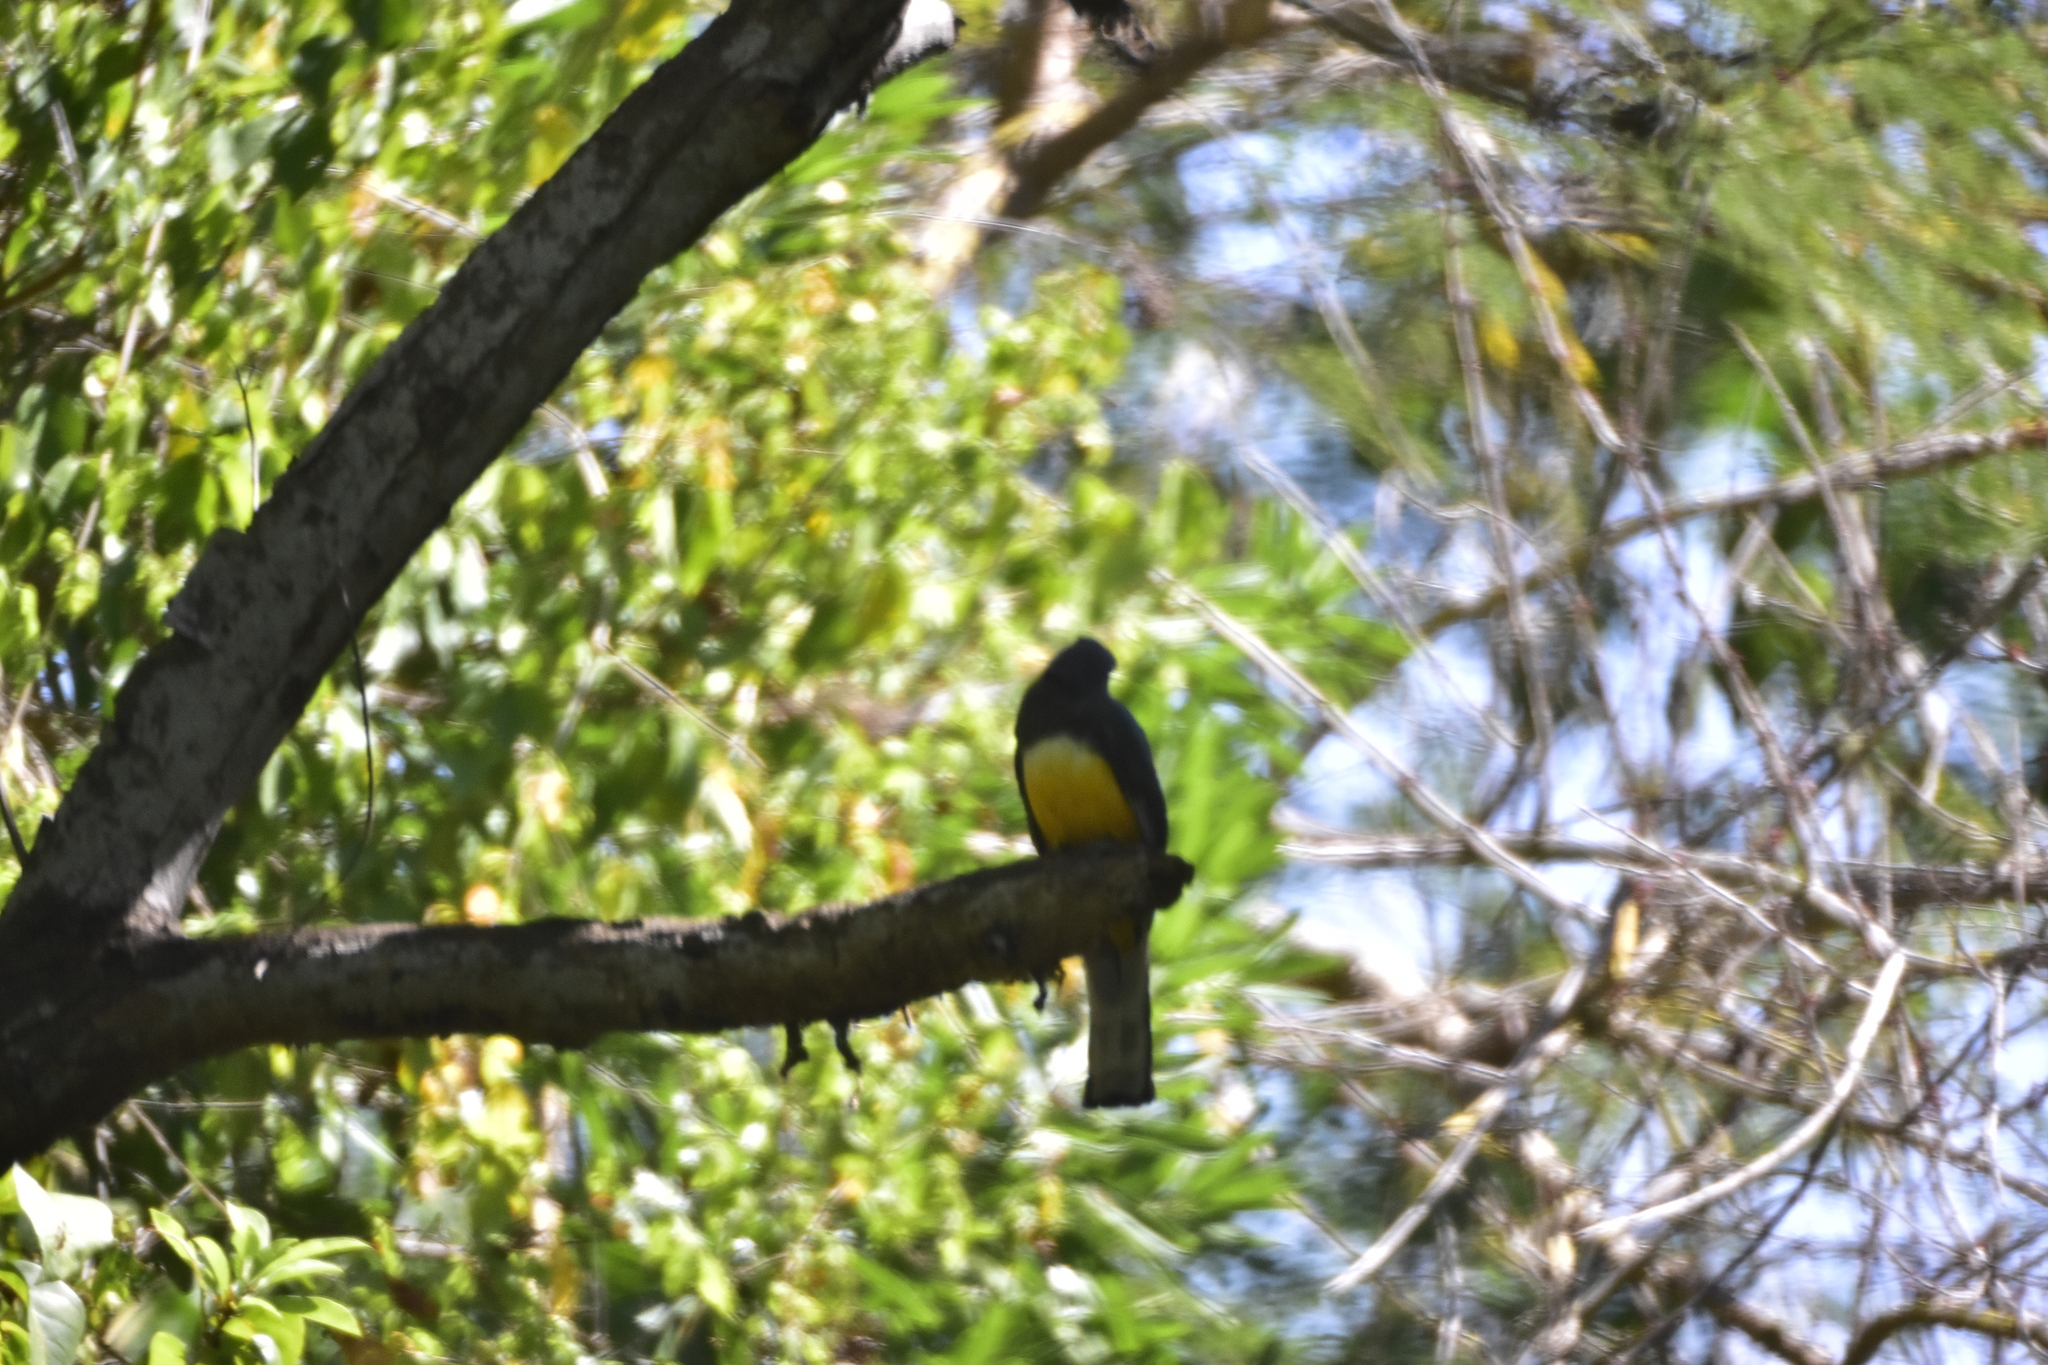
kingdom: Animalia
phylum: Chordata
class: Aves
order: Trogoniformes
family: Trogonidae
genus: Trogon
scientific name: Trogon citreolus
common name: Citreoline trogon
